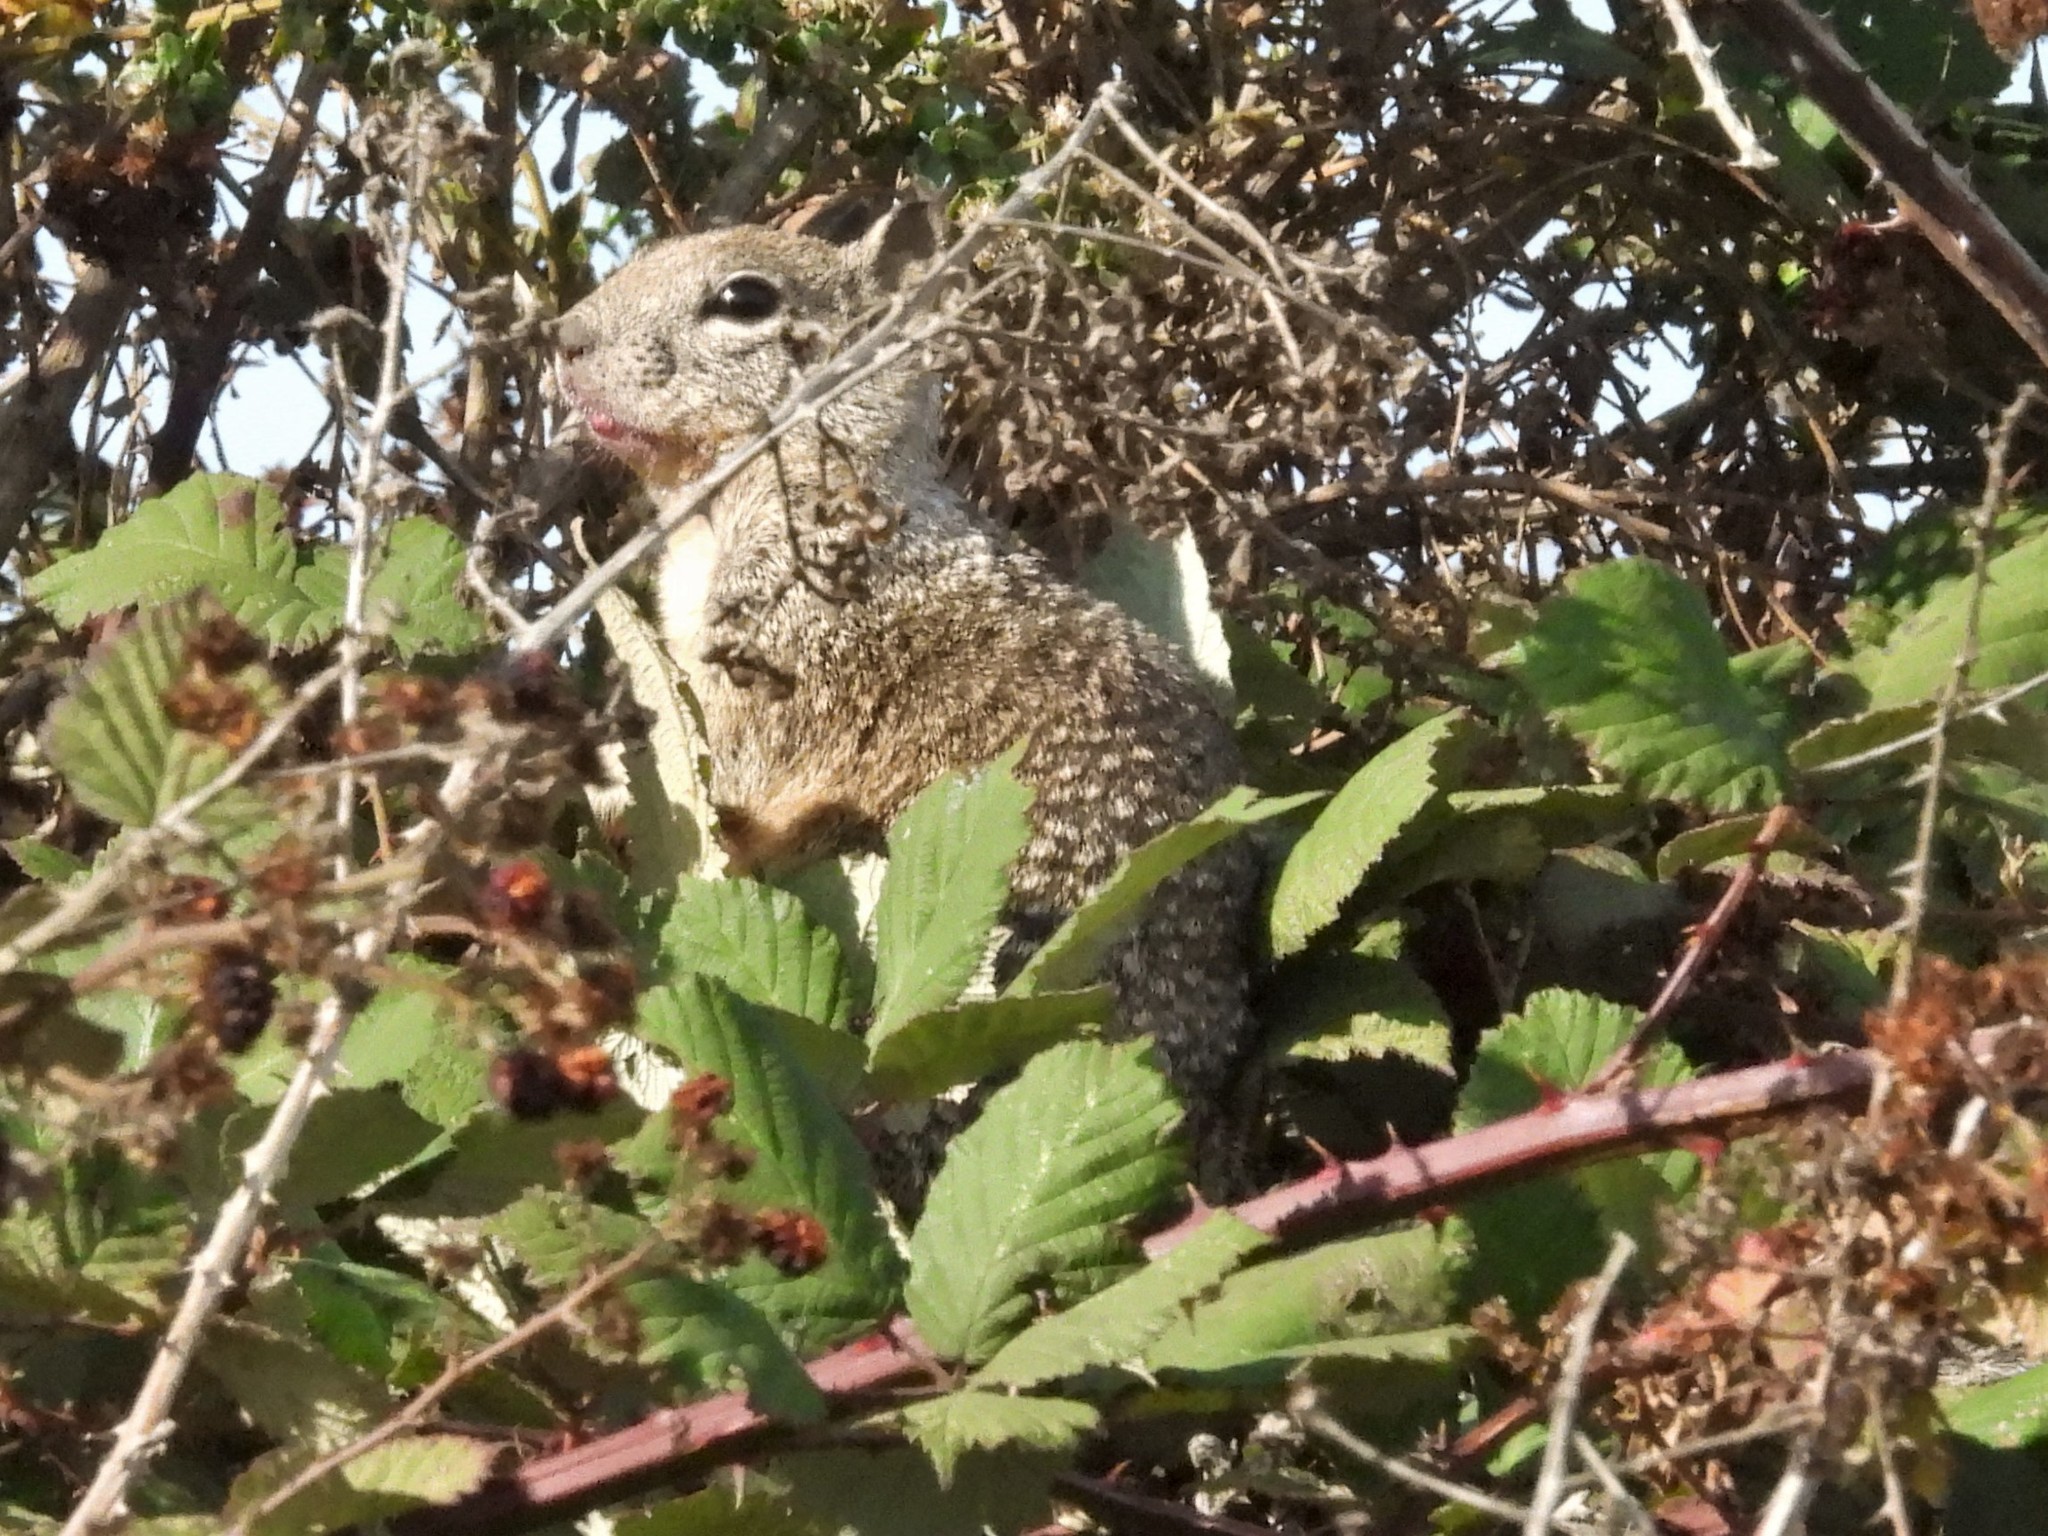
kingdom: Animalia
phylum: Chordata
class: Mammalia
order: Rodentia
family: Sciuridae
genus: Otospermophilus
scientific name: Otospermophilus beecheyi
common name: California ground squirrel
